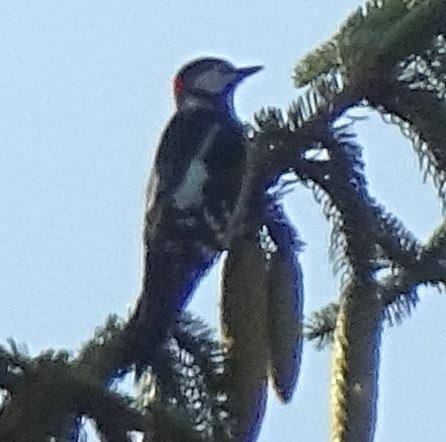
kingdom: Animalia
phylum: Chordata
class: Aves
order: Piciformes
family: Picidae
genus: Dendrocopos
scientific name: Dendrocopos major
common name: Great spotted woodpecker
